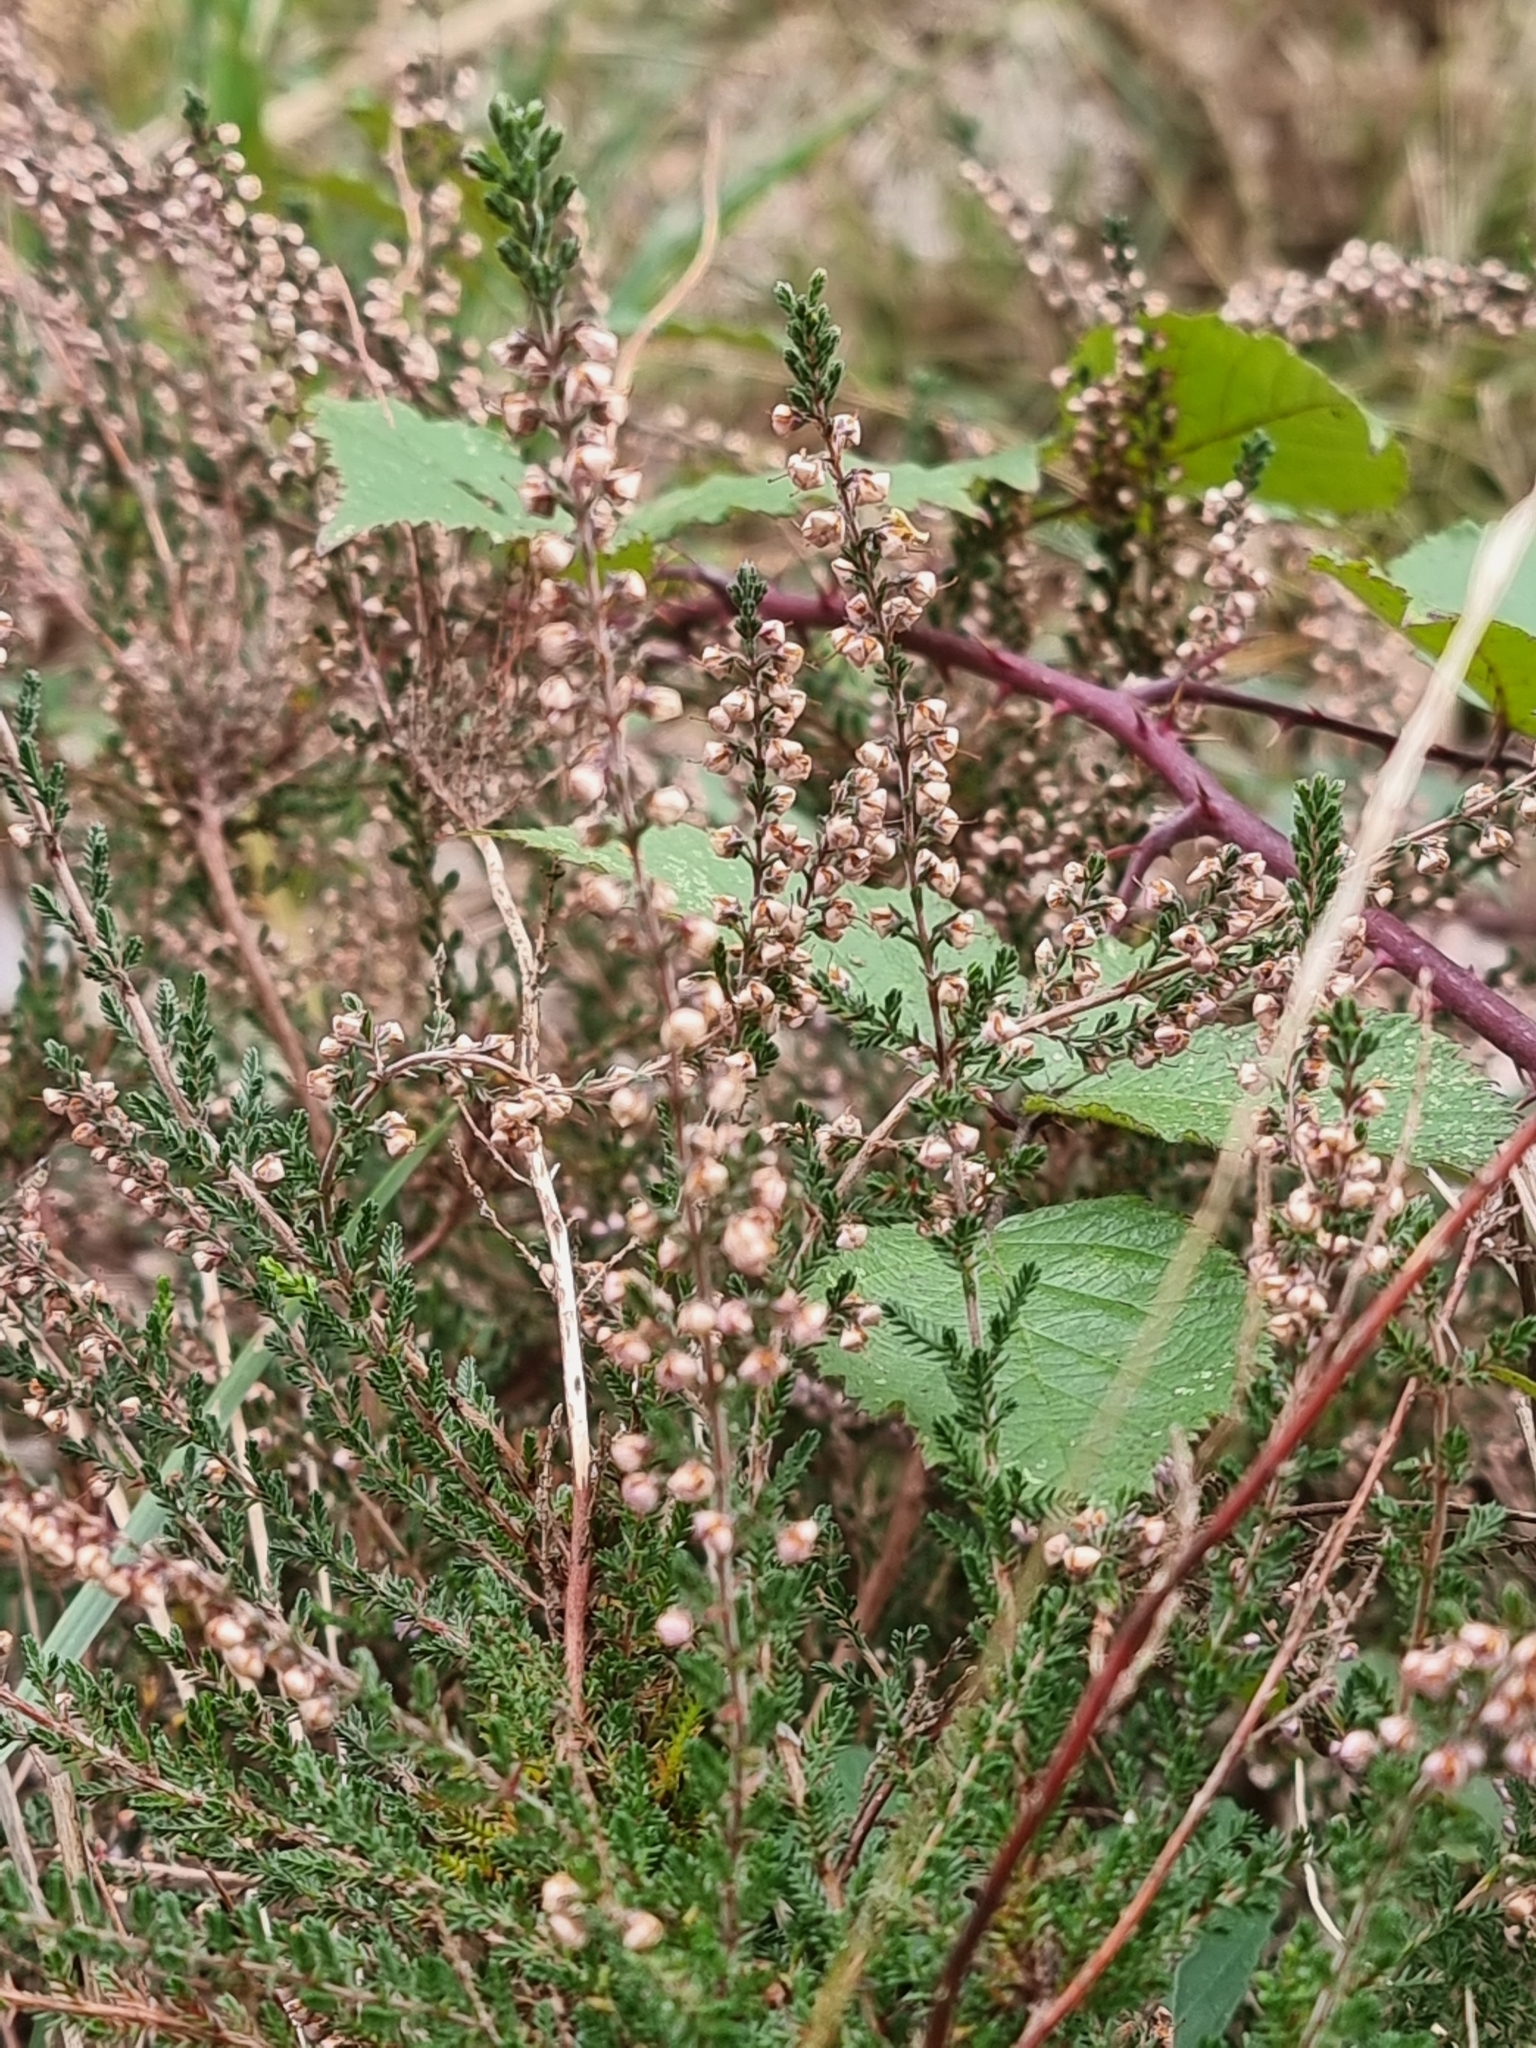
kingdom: Plantae
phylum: Tracheophyta
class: Magnoliopsida
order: Ericales
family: Ericaceae
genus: Calluna
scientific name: Calluna vulgaris
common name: Heather
